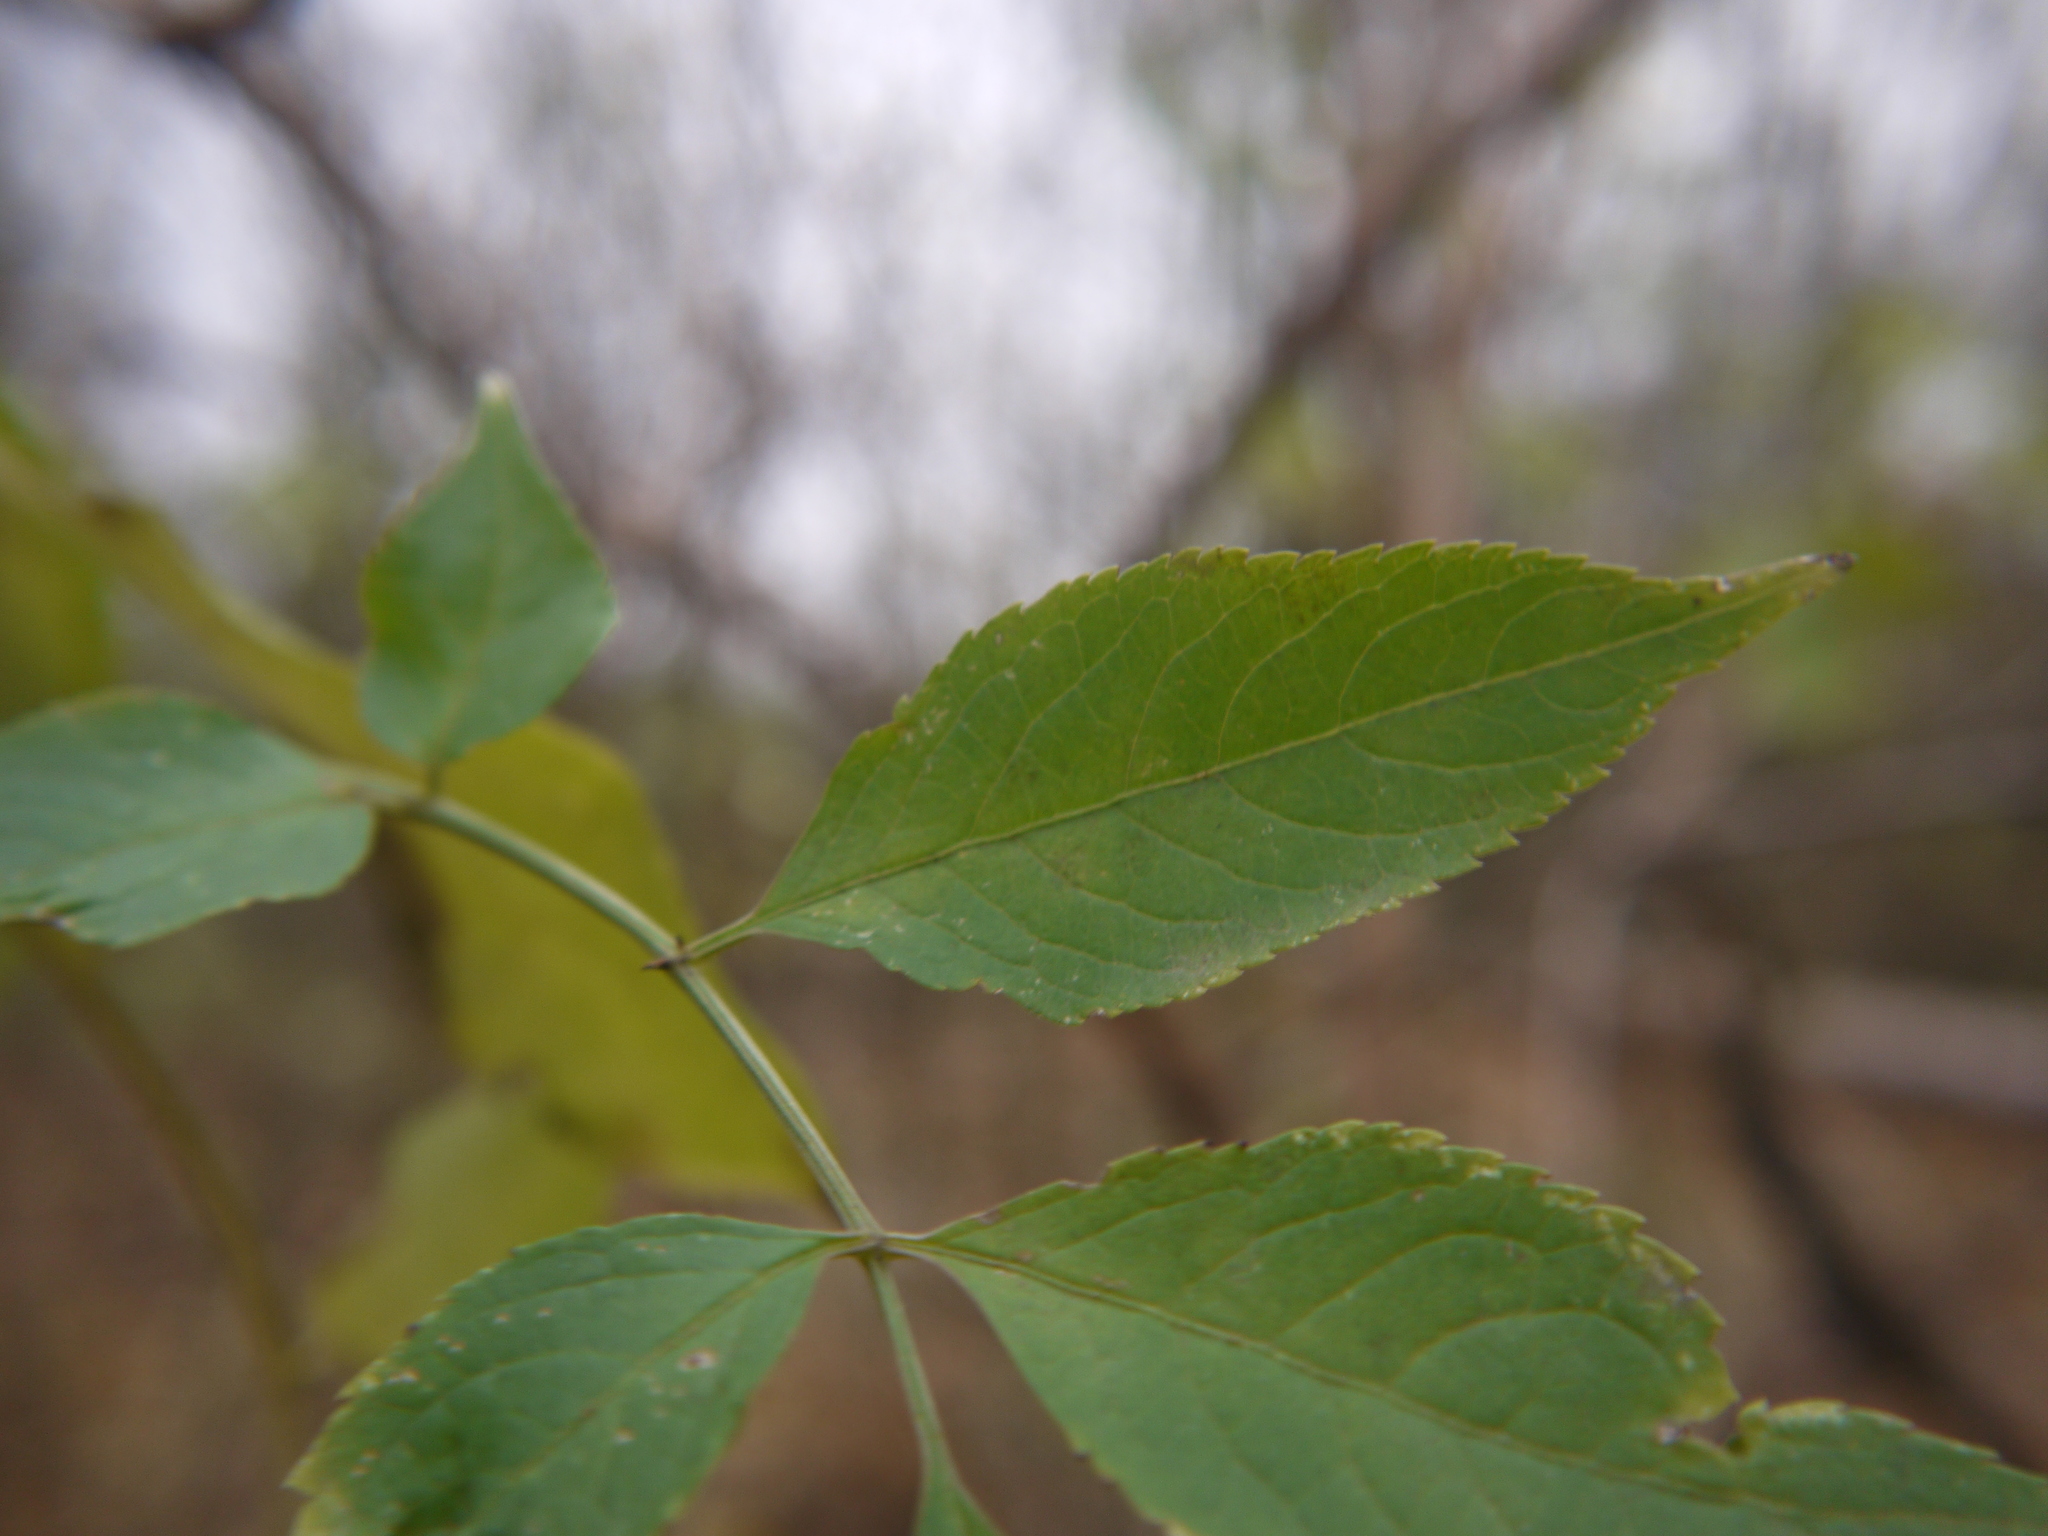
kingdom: Plantae
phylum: Tracheophyta
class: Magnoliopsida
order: Dipsacales
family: Viburnaceae
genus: Sambucus
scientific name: Sambucus nigra
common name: Elder
